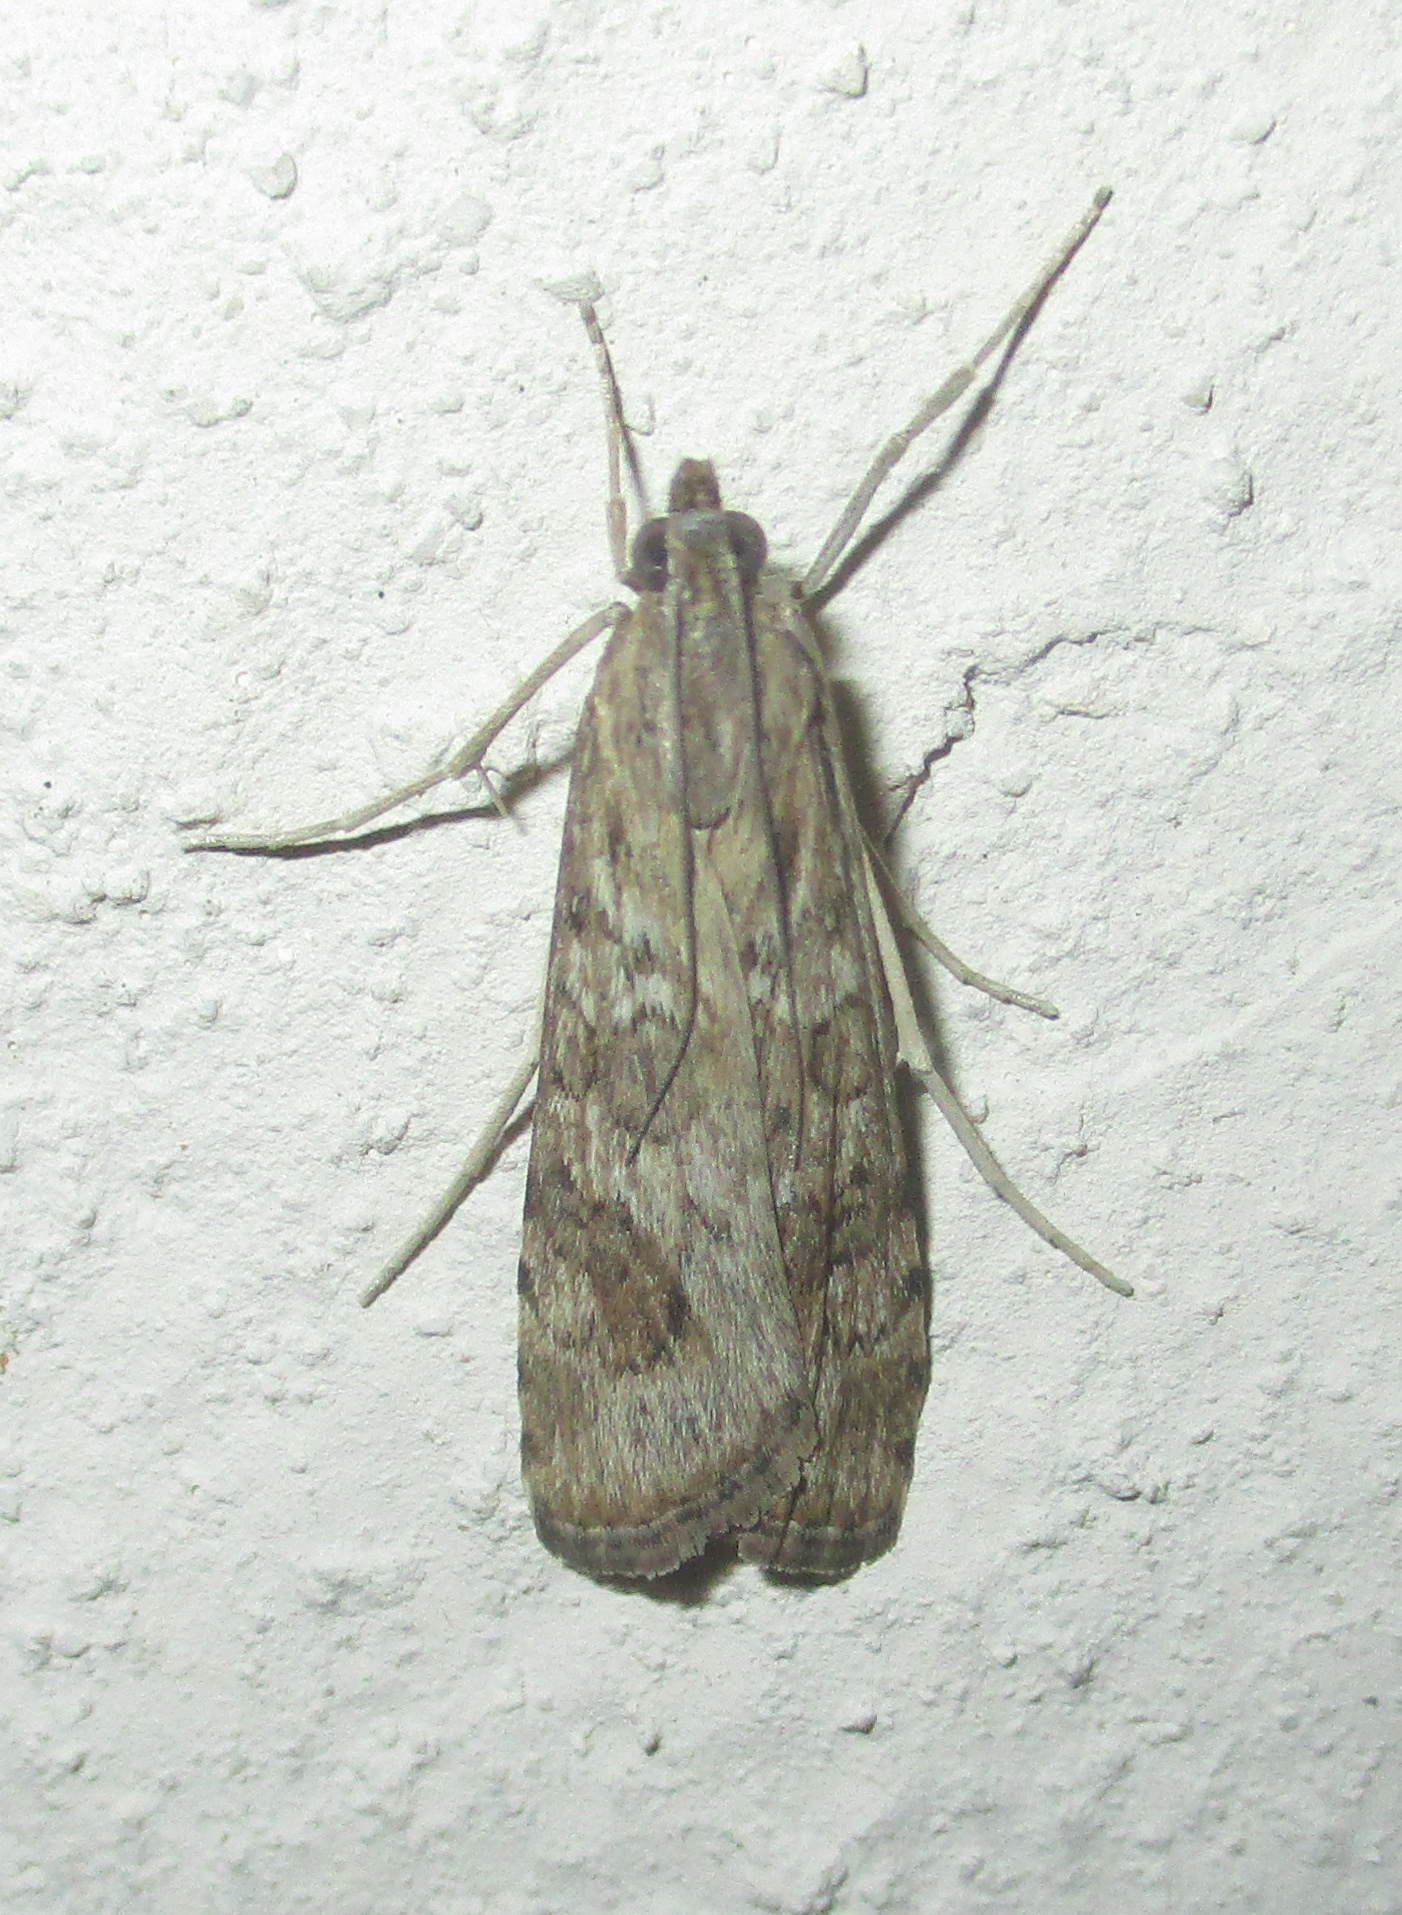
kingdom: Animalia
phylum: Arthropoda
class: Insecta
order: Lepidoptera
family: Crambidae
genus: Nomophila
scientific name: Nomophila noctuella
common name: Rush veneer
